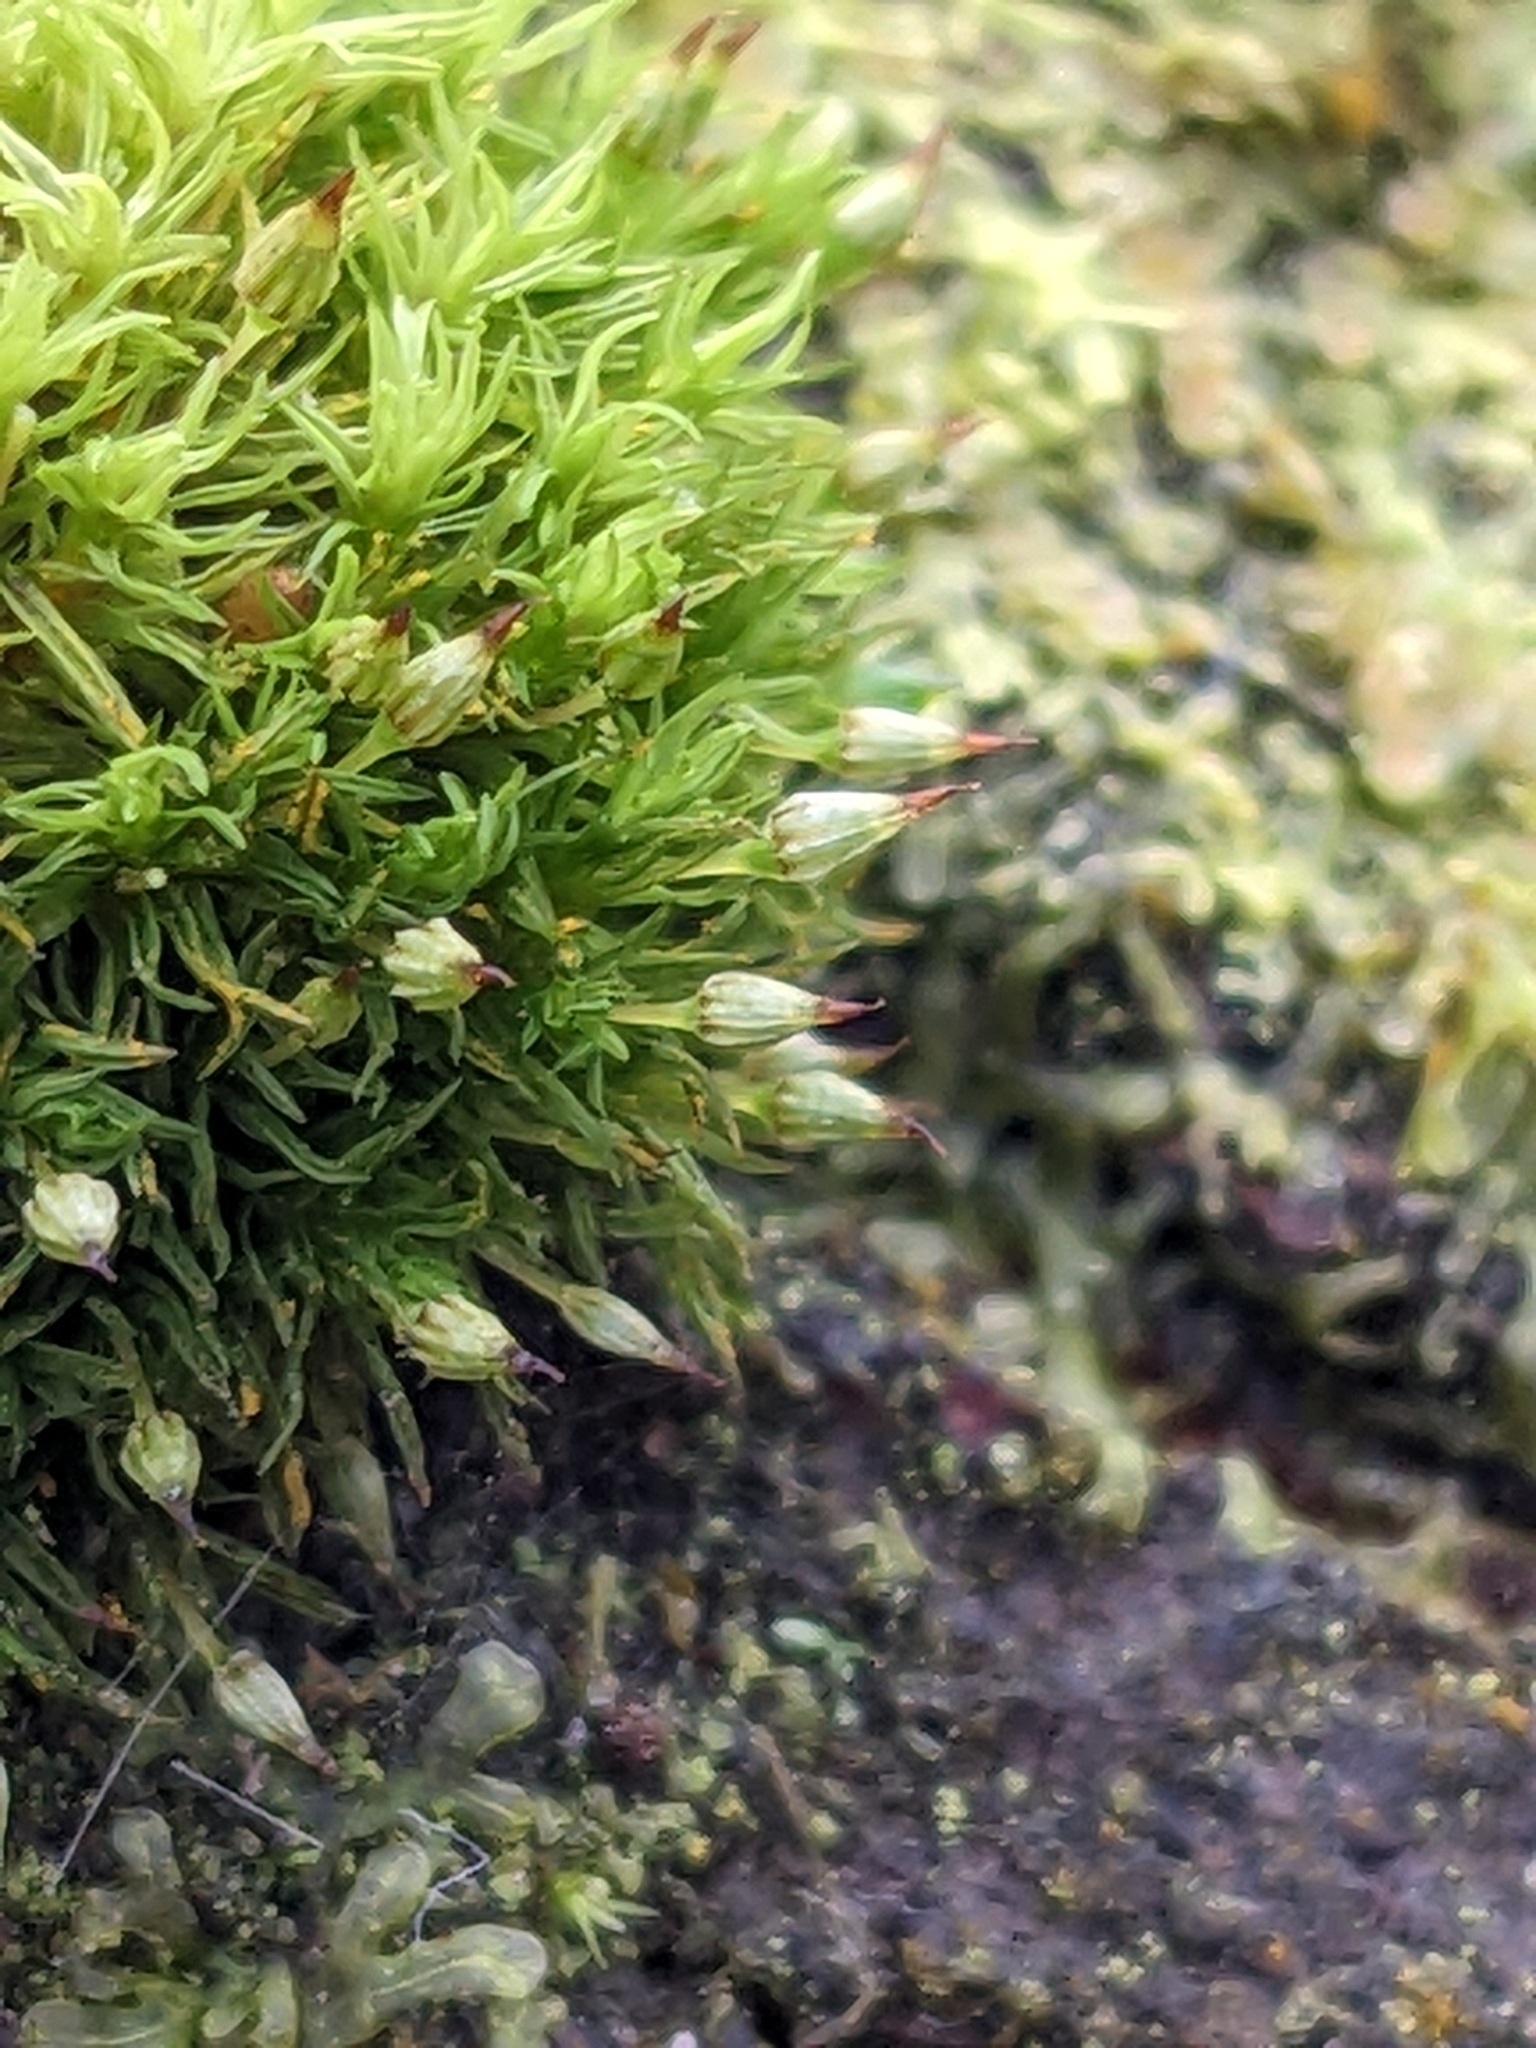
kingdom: Plantae
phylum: Bryophyta
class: Bryopsida
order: Orthotrichales
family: Orthotrichaceae
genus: Orthotrichum
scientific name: Orthotrichum pulchellum
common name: Elegant bristle-moss
